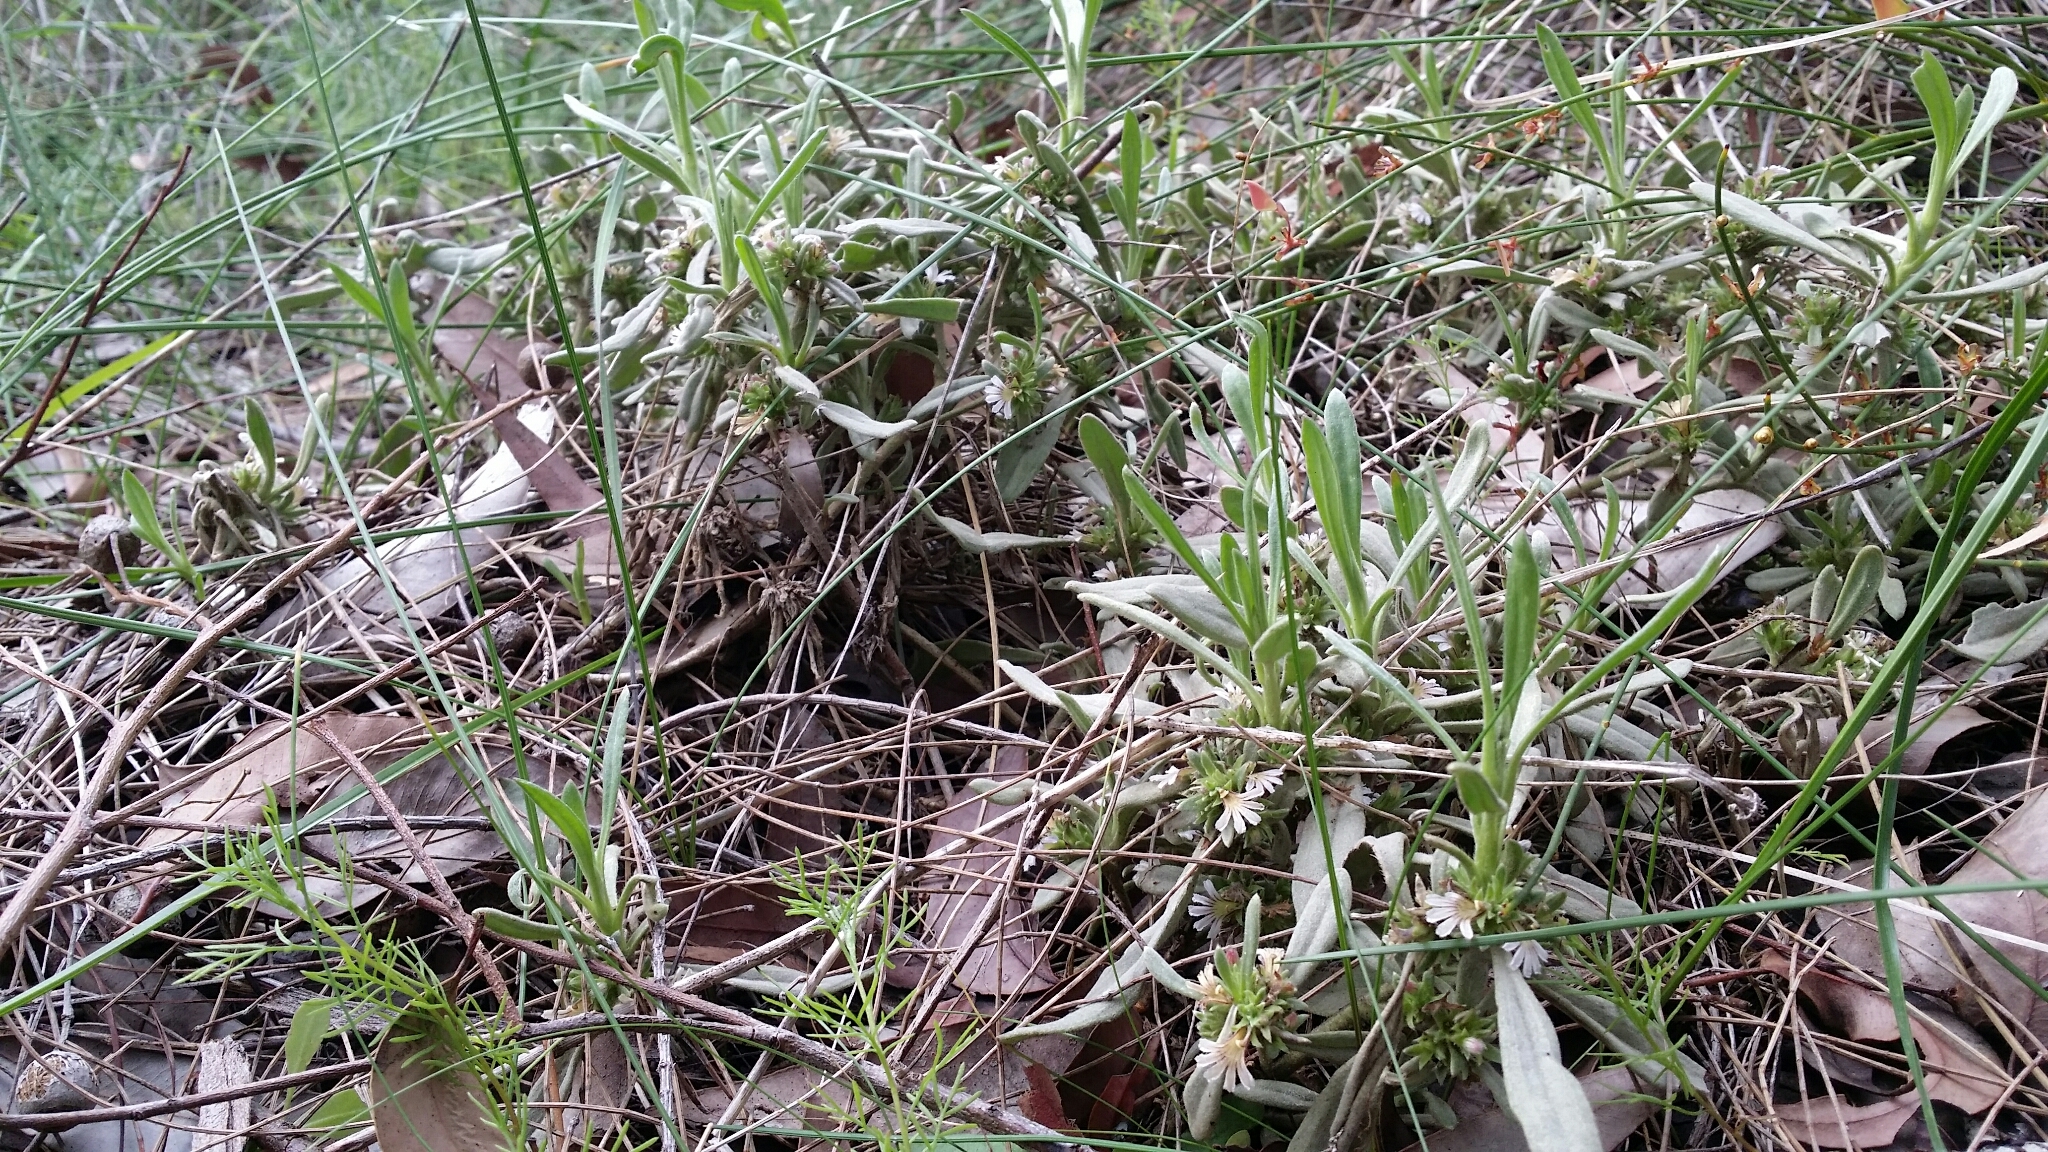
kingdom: Plantae
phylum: Tracheophyta
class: Magnoliopsida
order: Asterales
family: Goodeniaceae
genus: Scaevola
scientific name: Scaevola canescens
